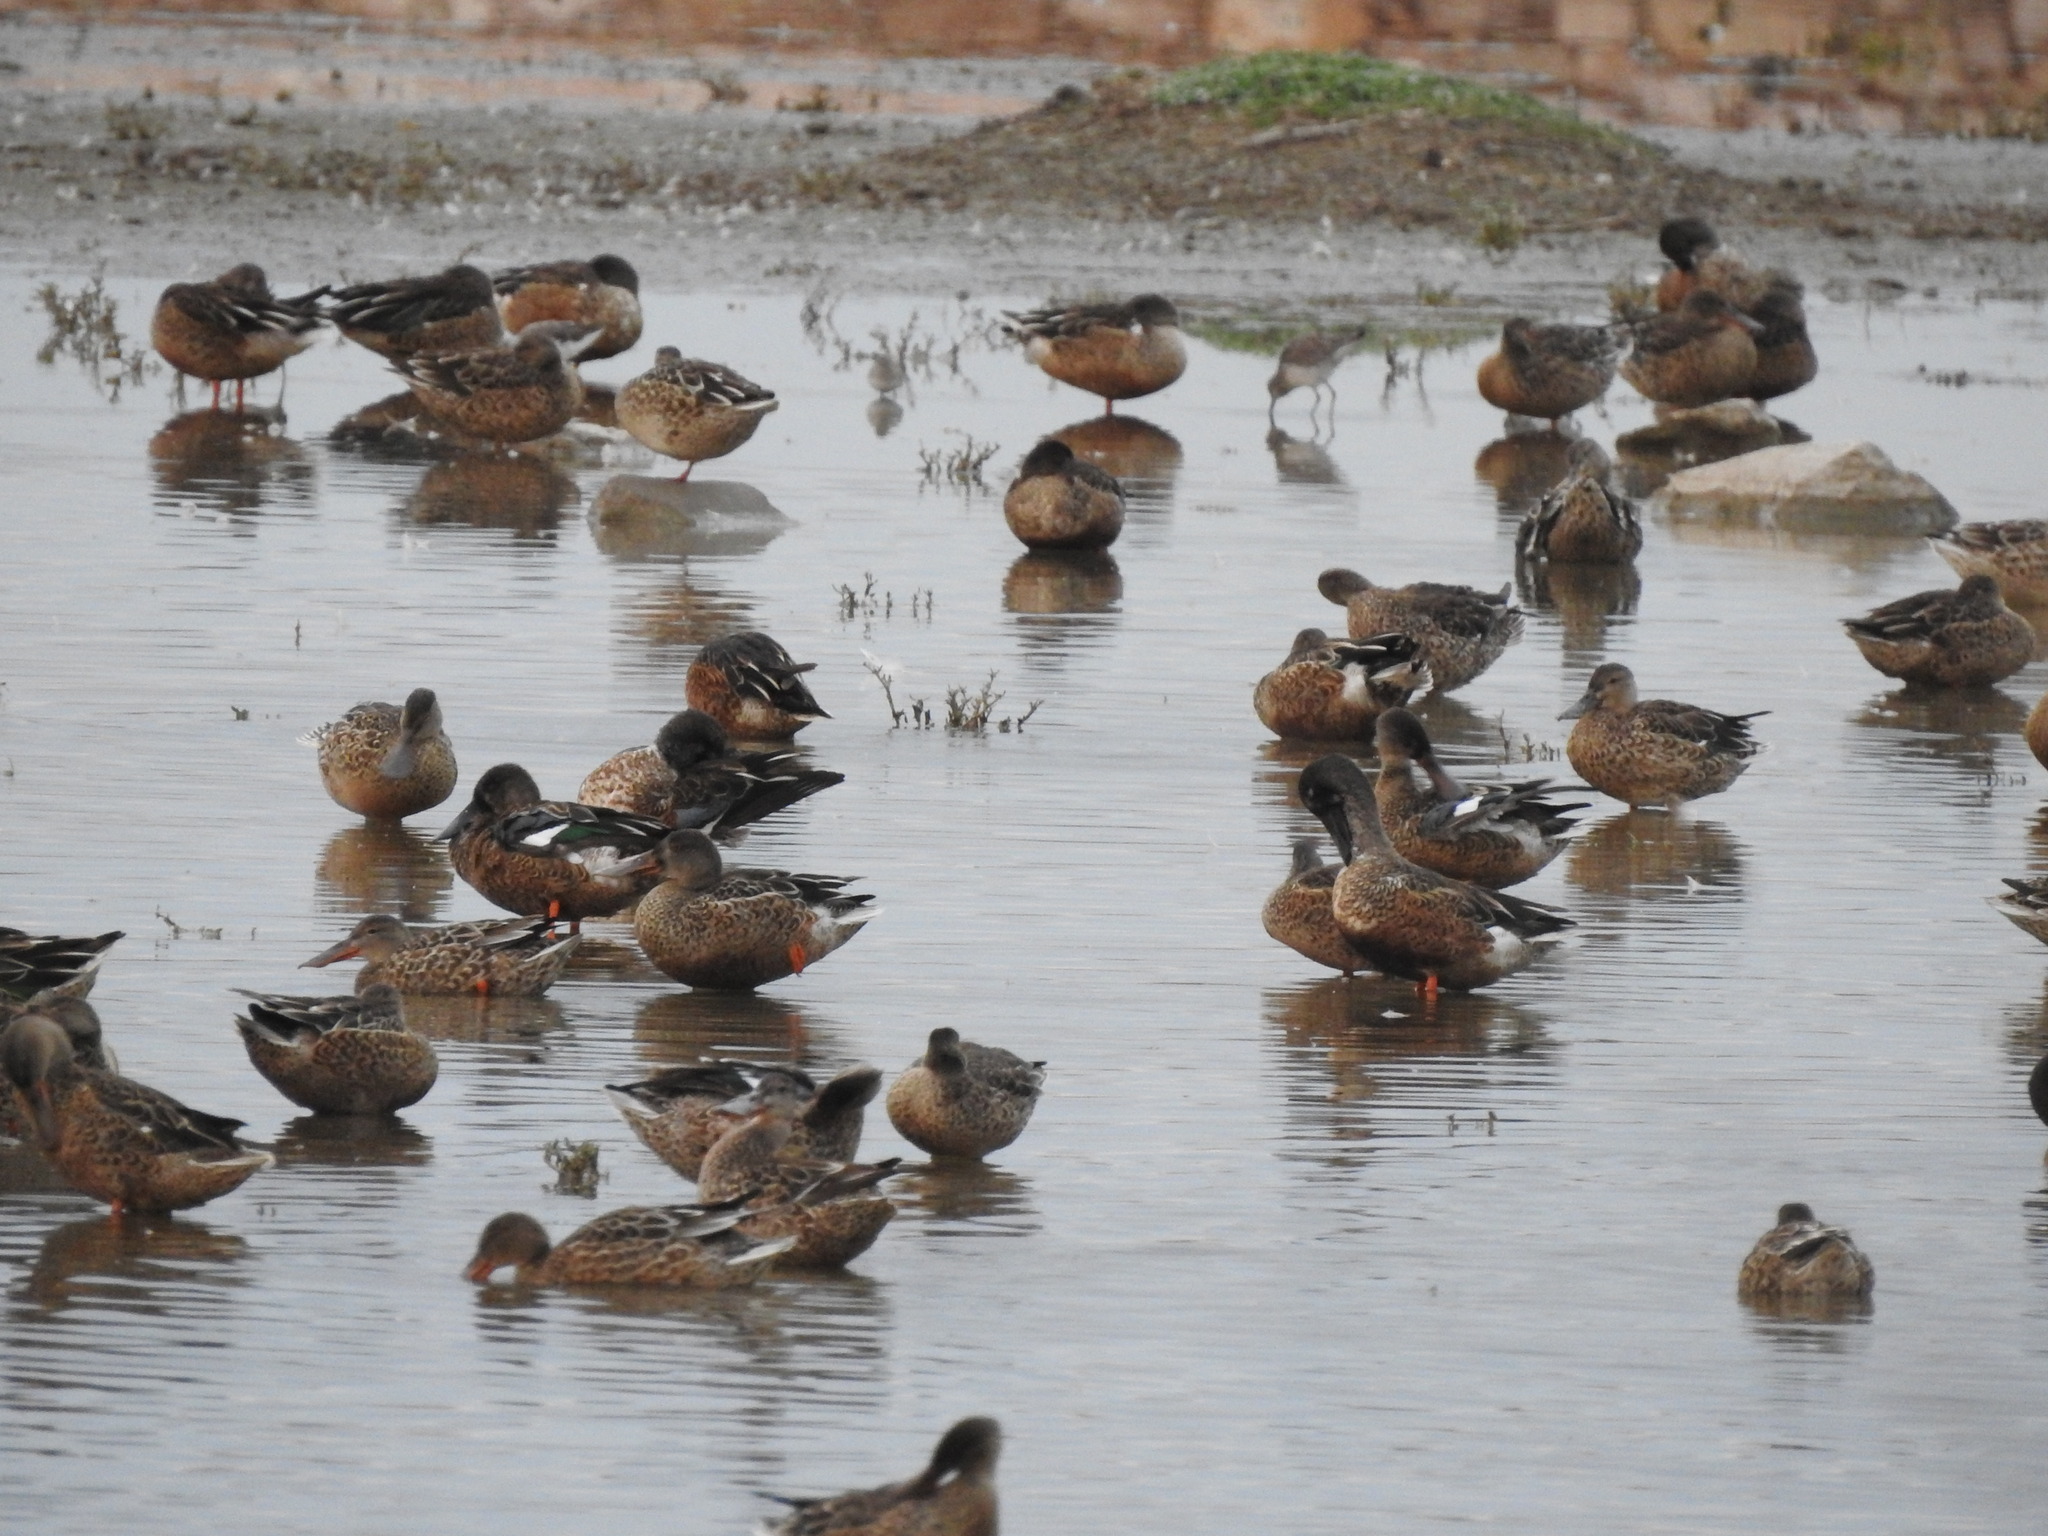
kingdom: Animalia
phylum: Chordata
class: Aves
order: Anseriformes
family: Anatidae
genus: Spatula
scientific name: Spatula clypeata
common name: Northern shoveler
